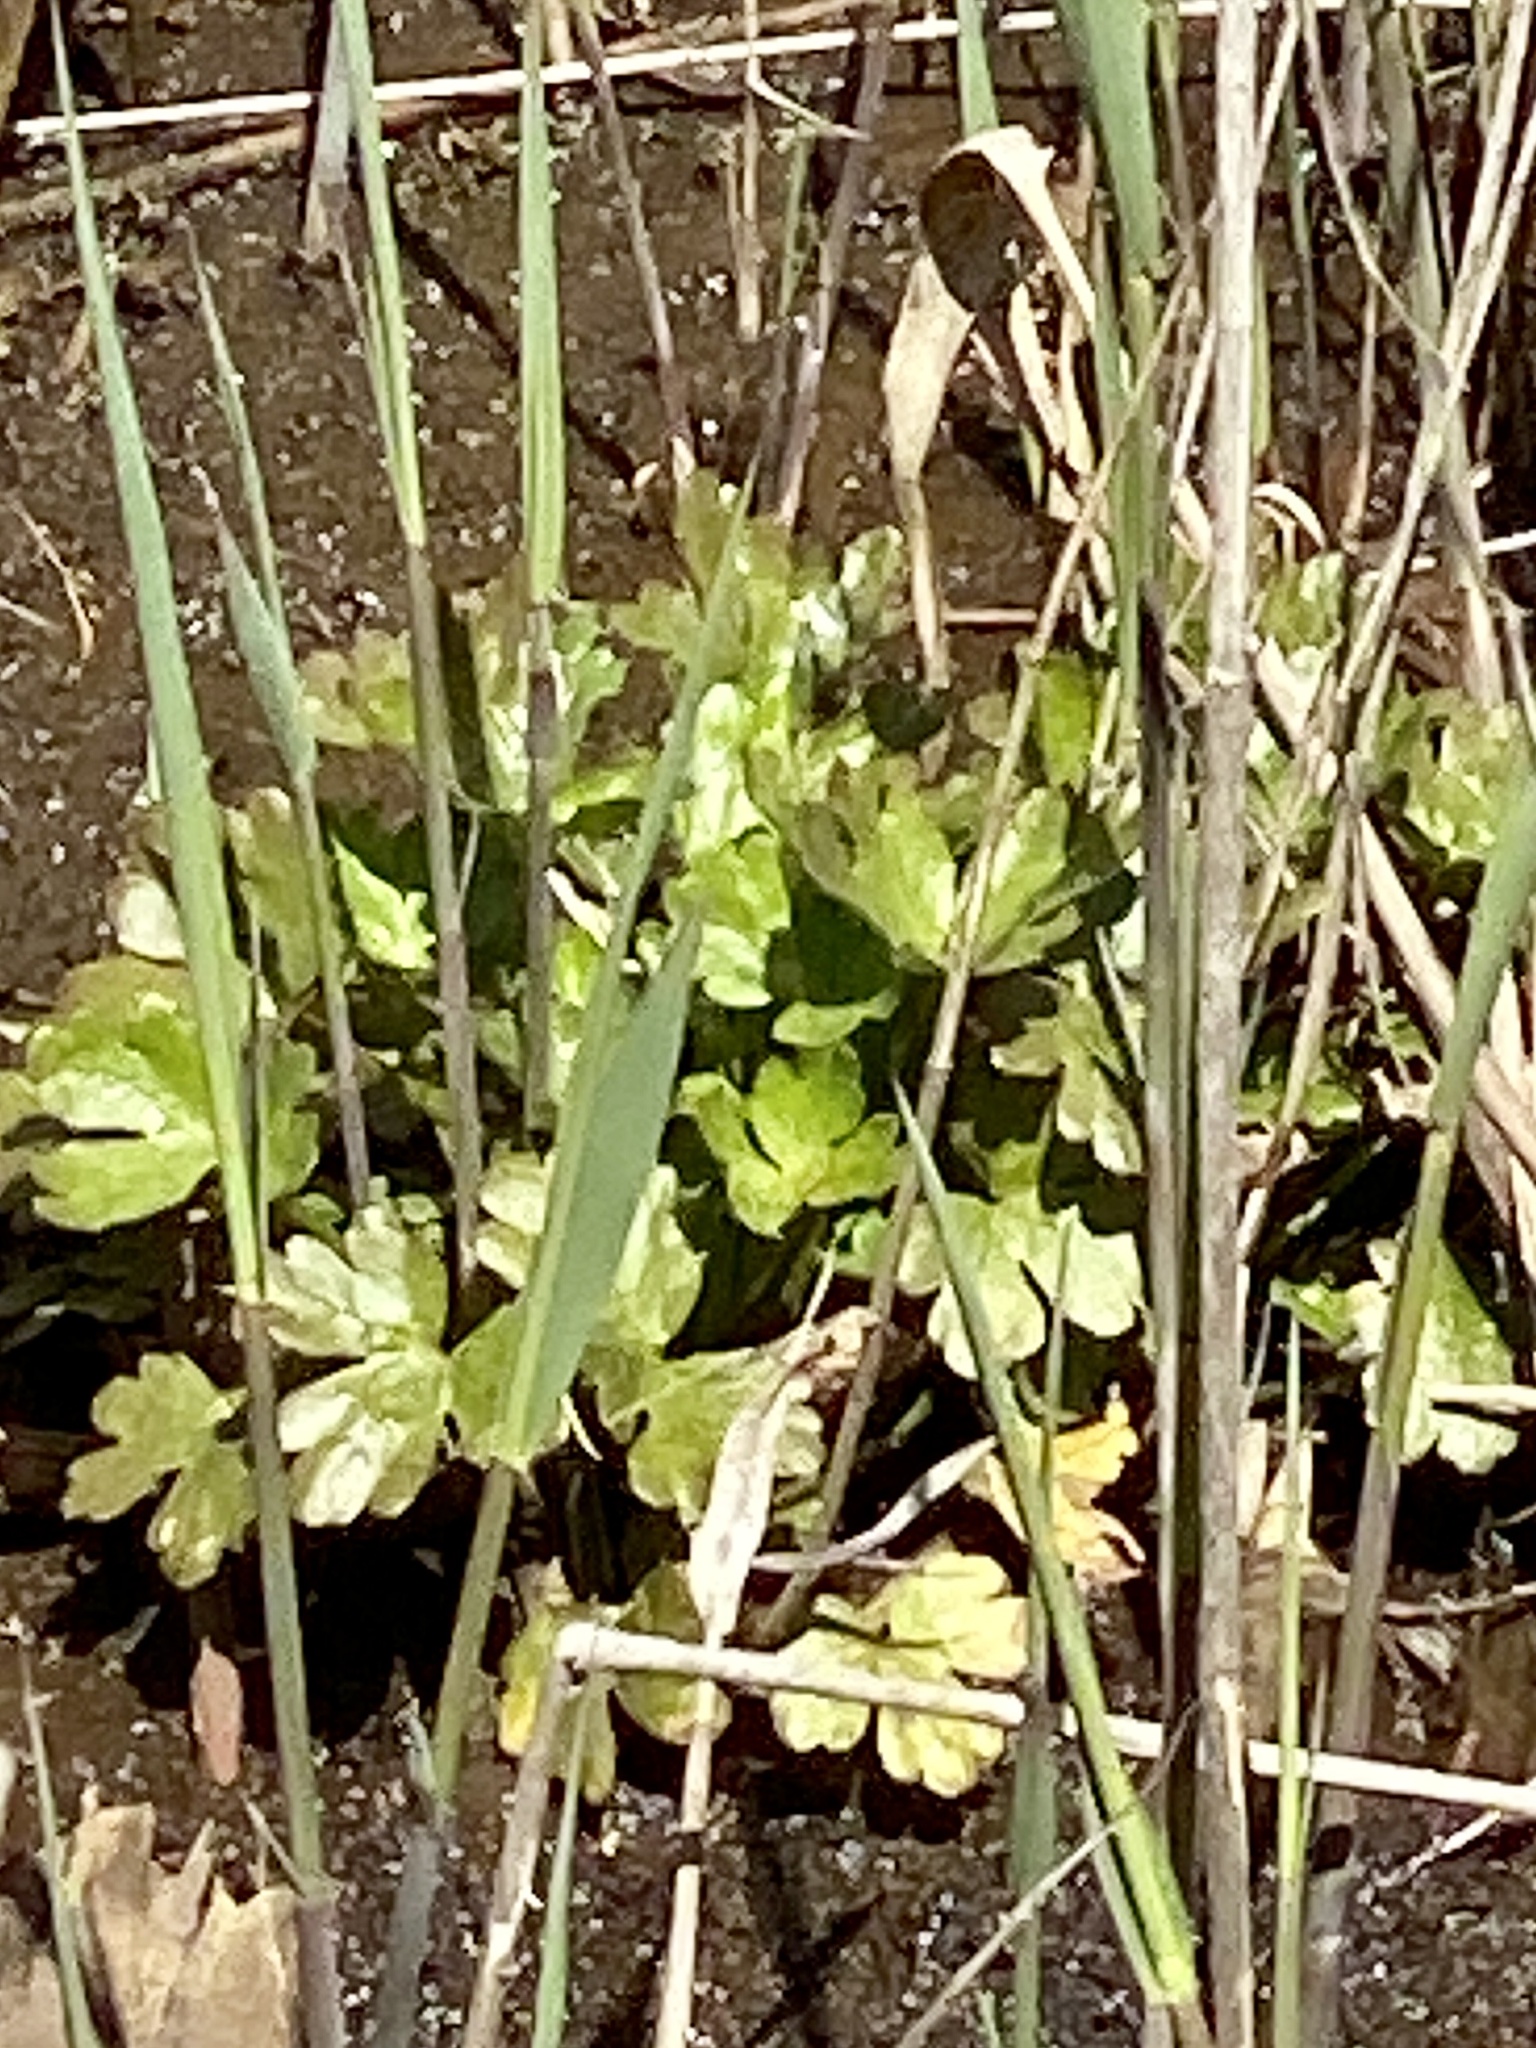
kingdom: Plantae
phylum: Tracheophyta
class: Magnoliopsida
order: Ranunculales
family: Ranunculaceae
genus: Ranunculus
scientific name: Ranunculus sceleratus
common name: Celery-leaved buttercup
